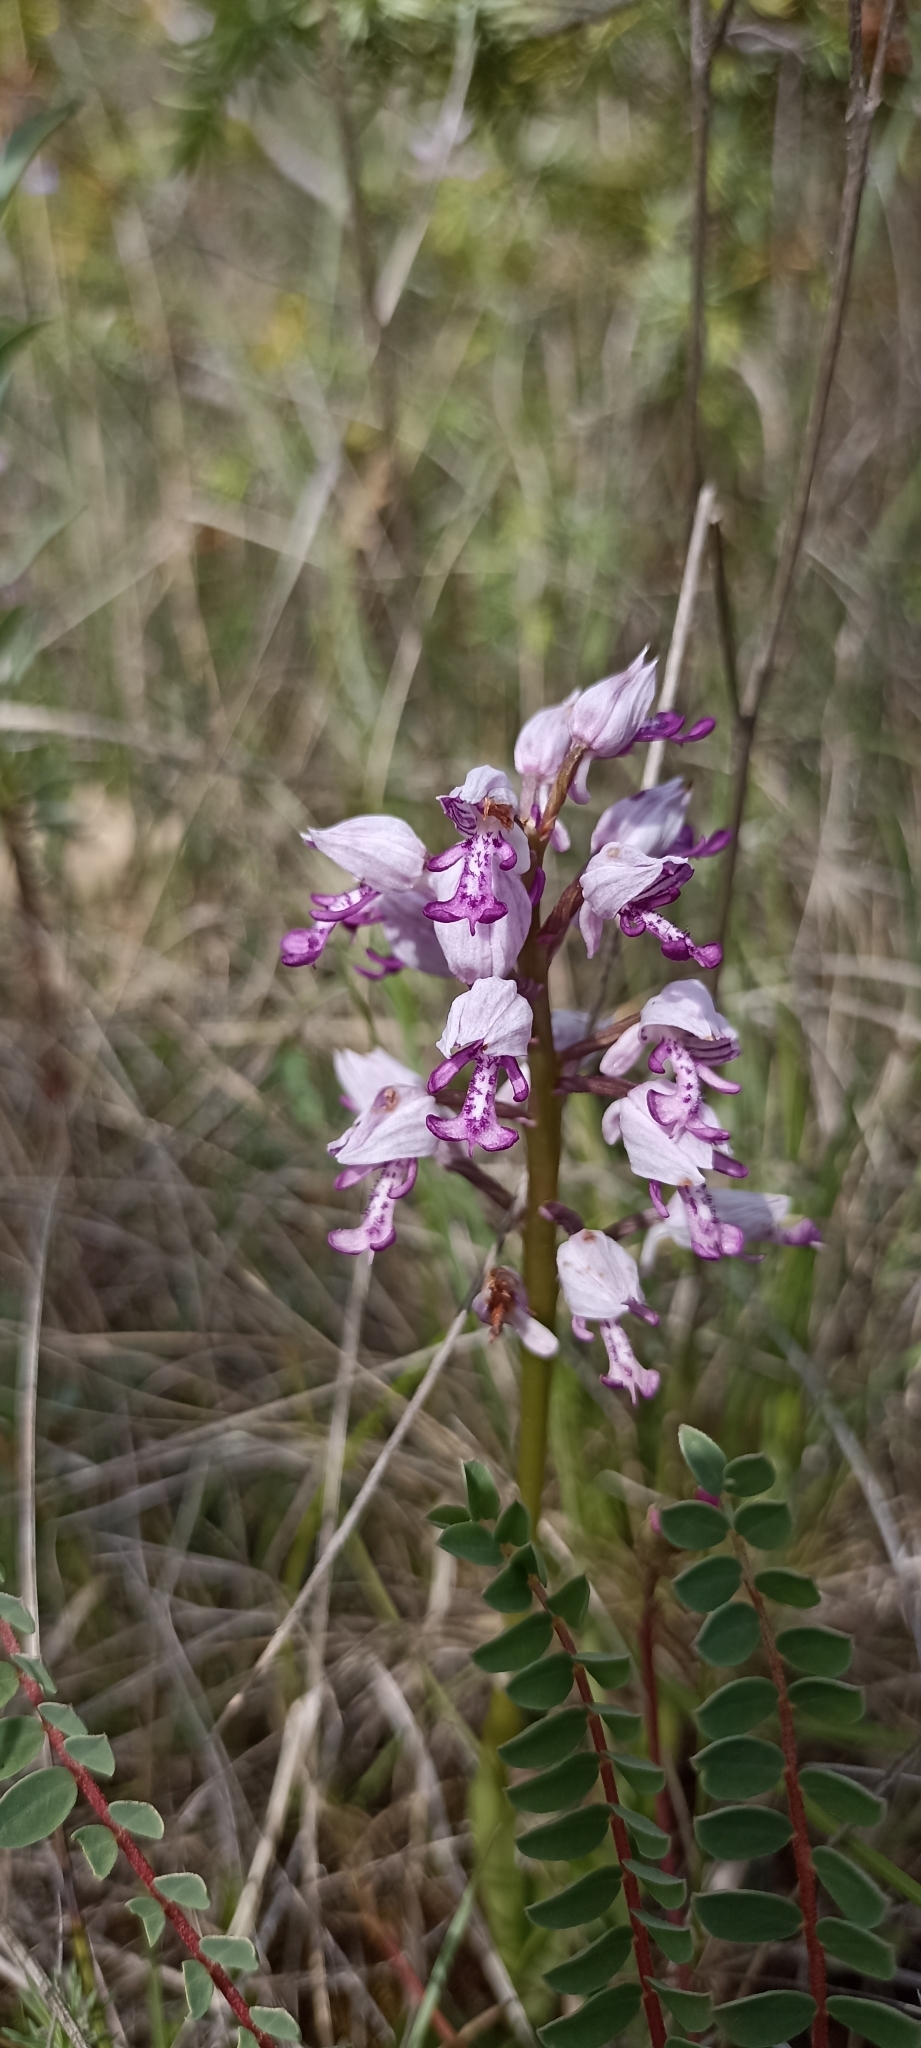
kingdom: Plantae
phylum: Tracheophyta
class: Liliopsida
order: Asparagales
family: Orchidaceae
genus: Orchis
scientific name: Orchis militaris
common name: Military orchid
